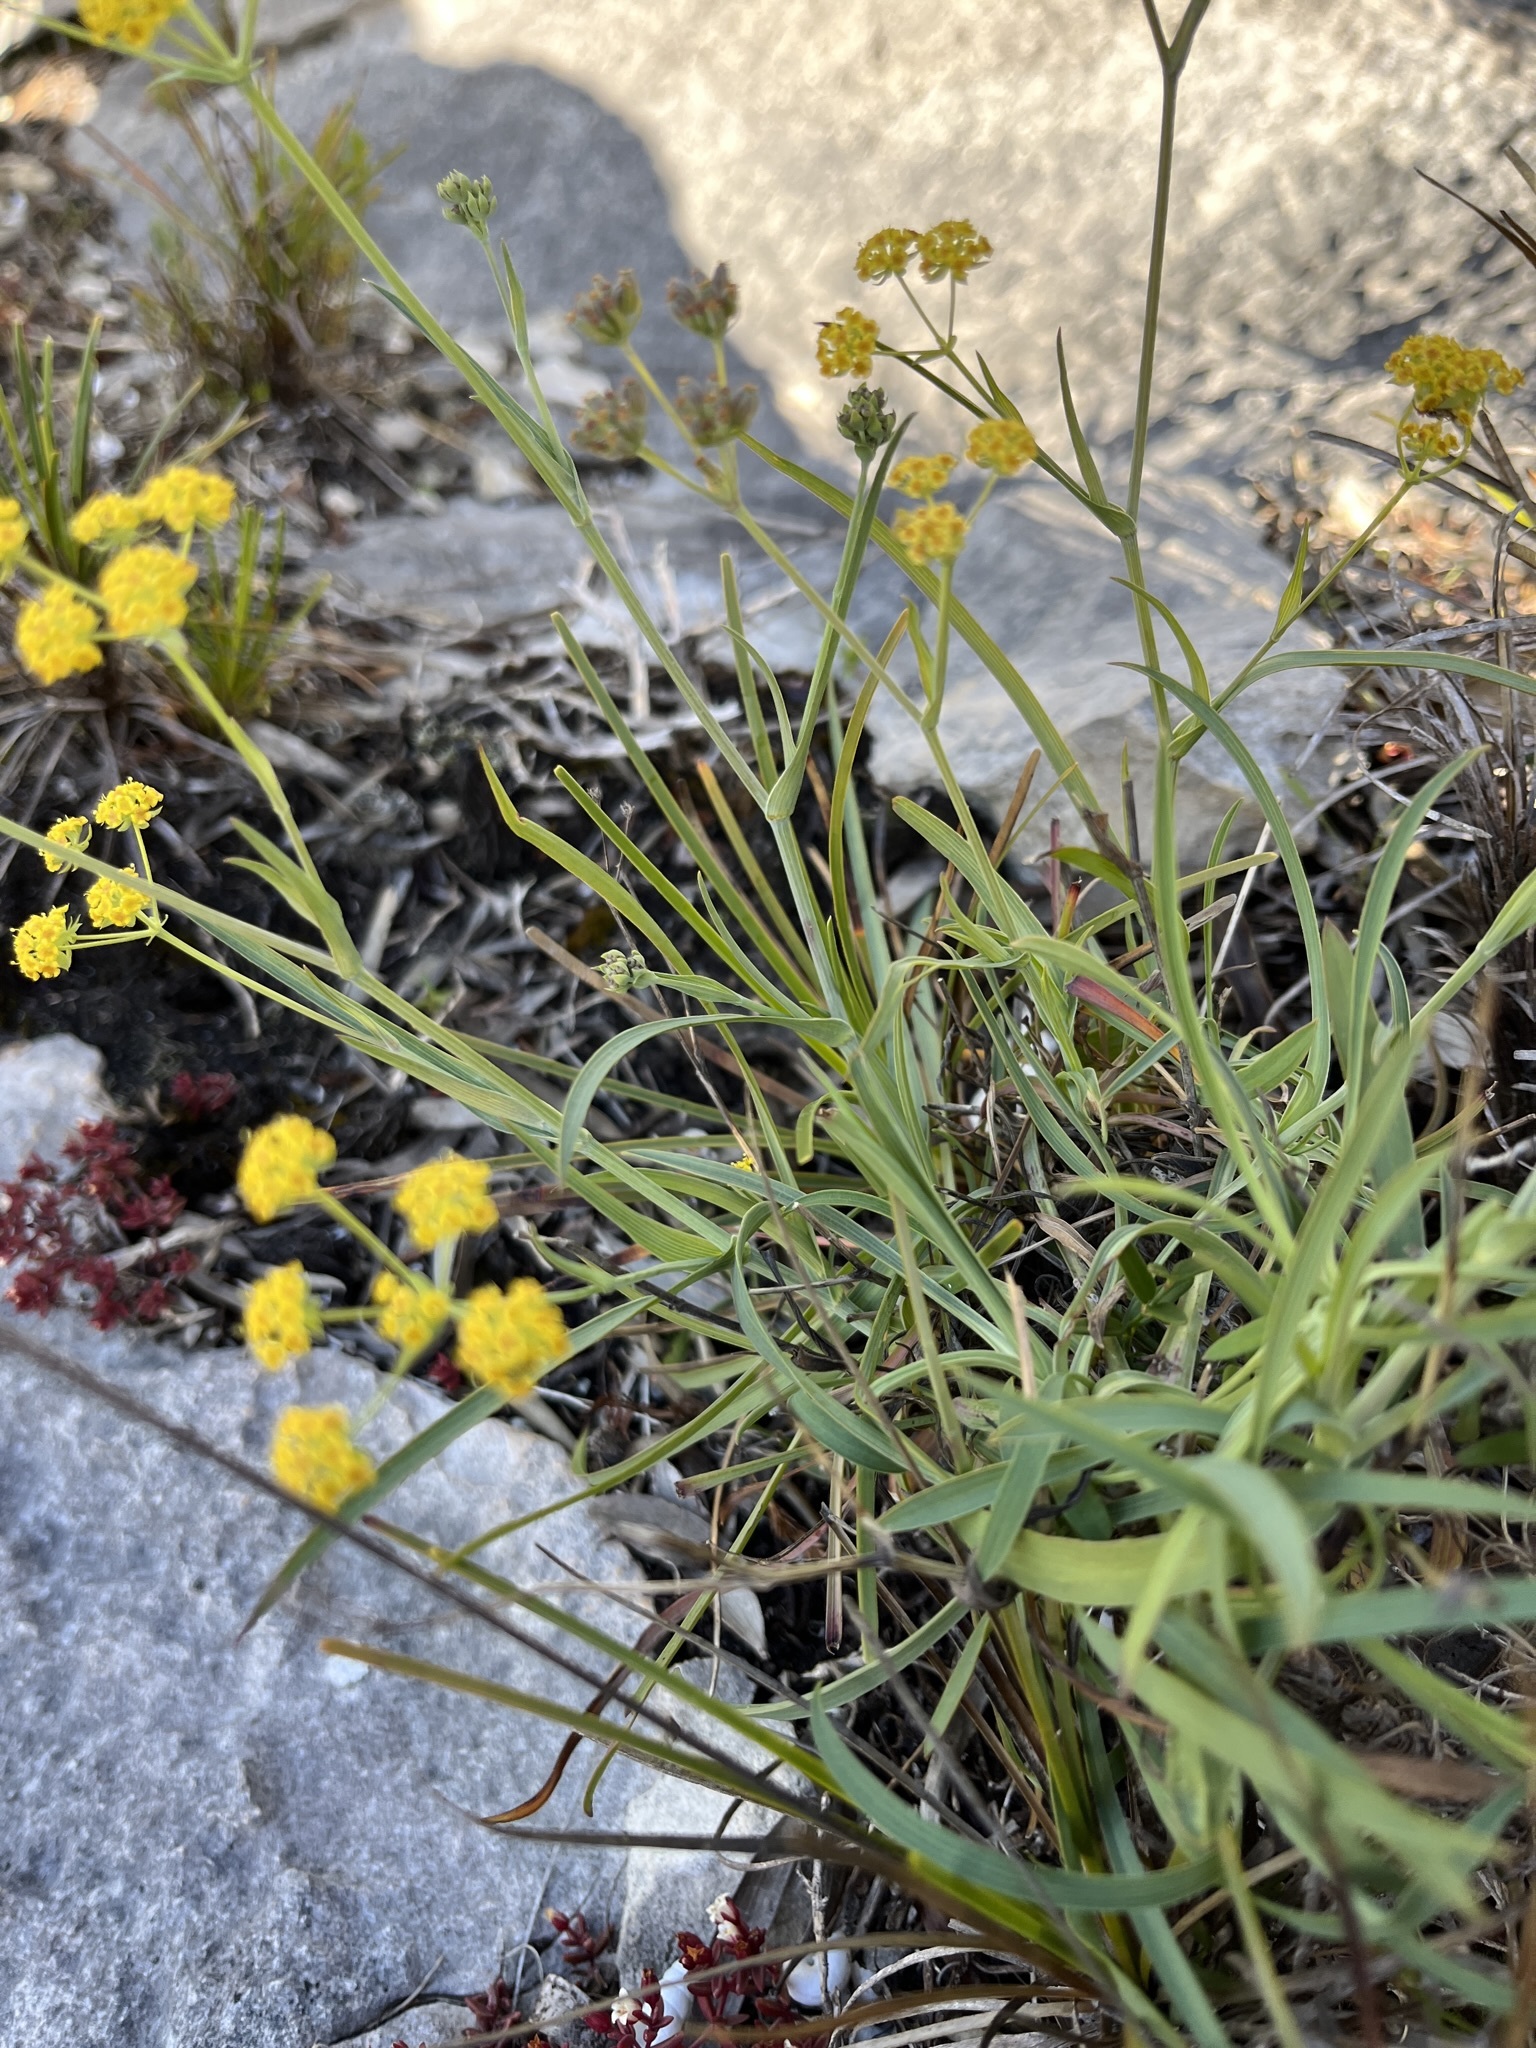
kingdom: Plantae
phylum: Tracheophyta
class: Magnoliopsida
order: Apiales
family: Apiaceae
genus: Bupleurum
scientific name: Bupleurum mundii
